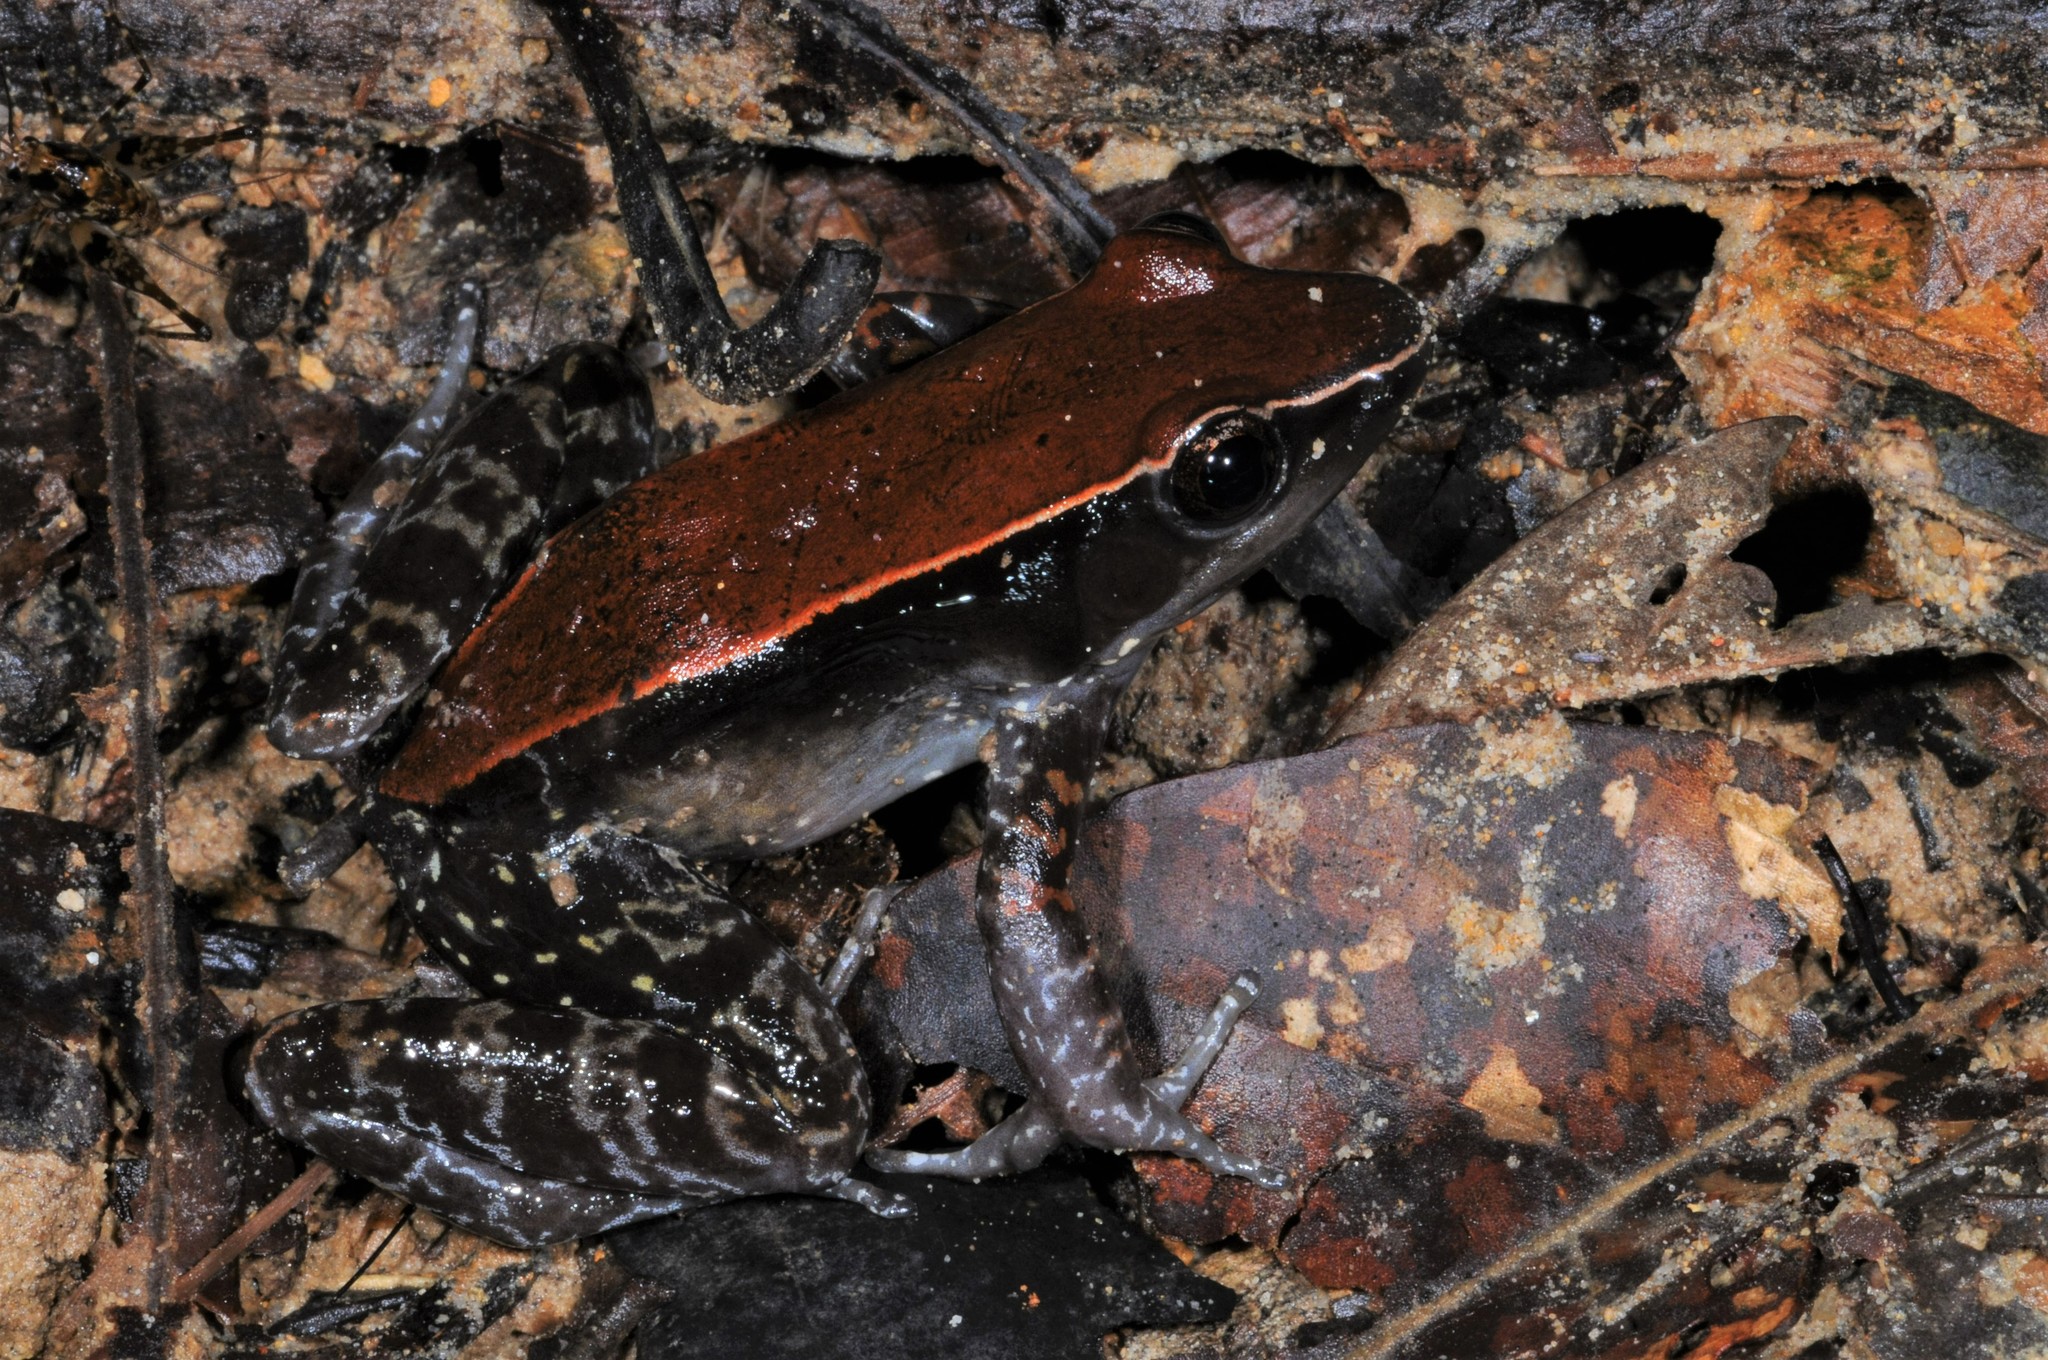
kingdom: Animalia
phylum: Chordata
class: Amphibia
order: Anura
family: Ranidae
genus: Abavorana
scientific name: Abavorana luctuosa
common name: Mahogany frog
